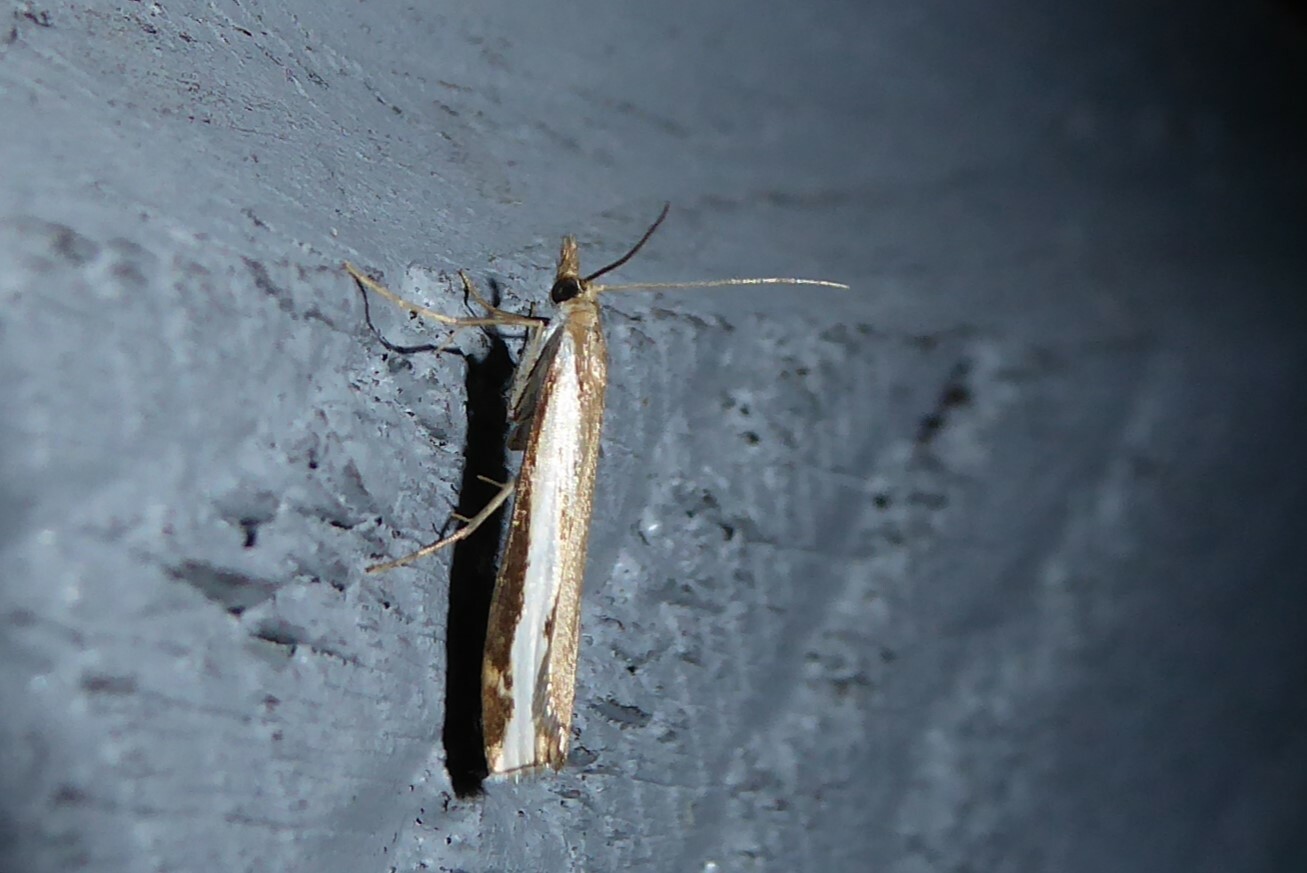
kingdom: Animalia
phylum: Arthropoda
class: Insecta
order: Lepidoptera
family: Crambidae
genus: Orocrambus
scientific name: Orocrambus flexuosellus
